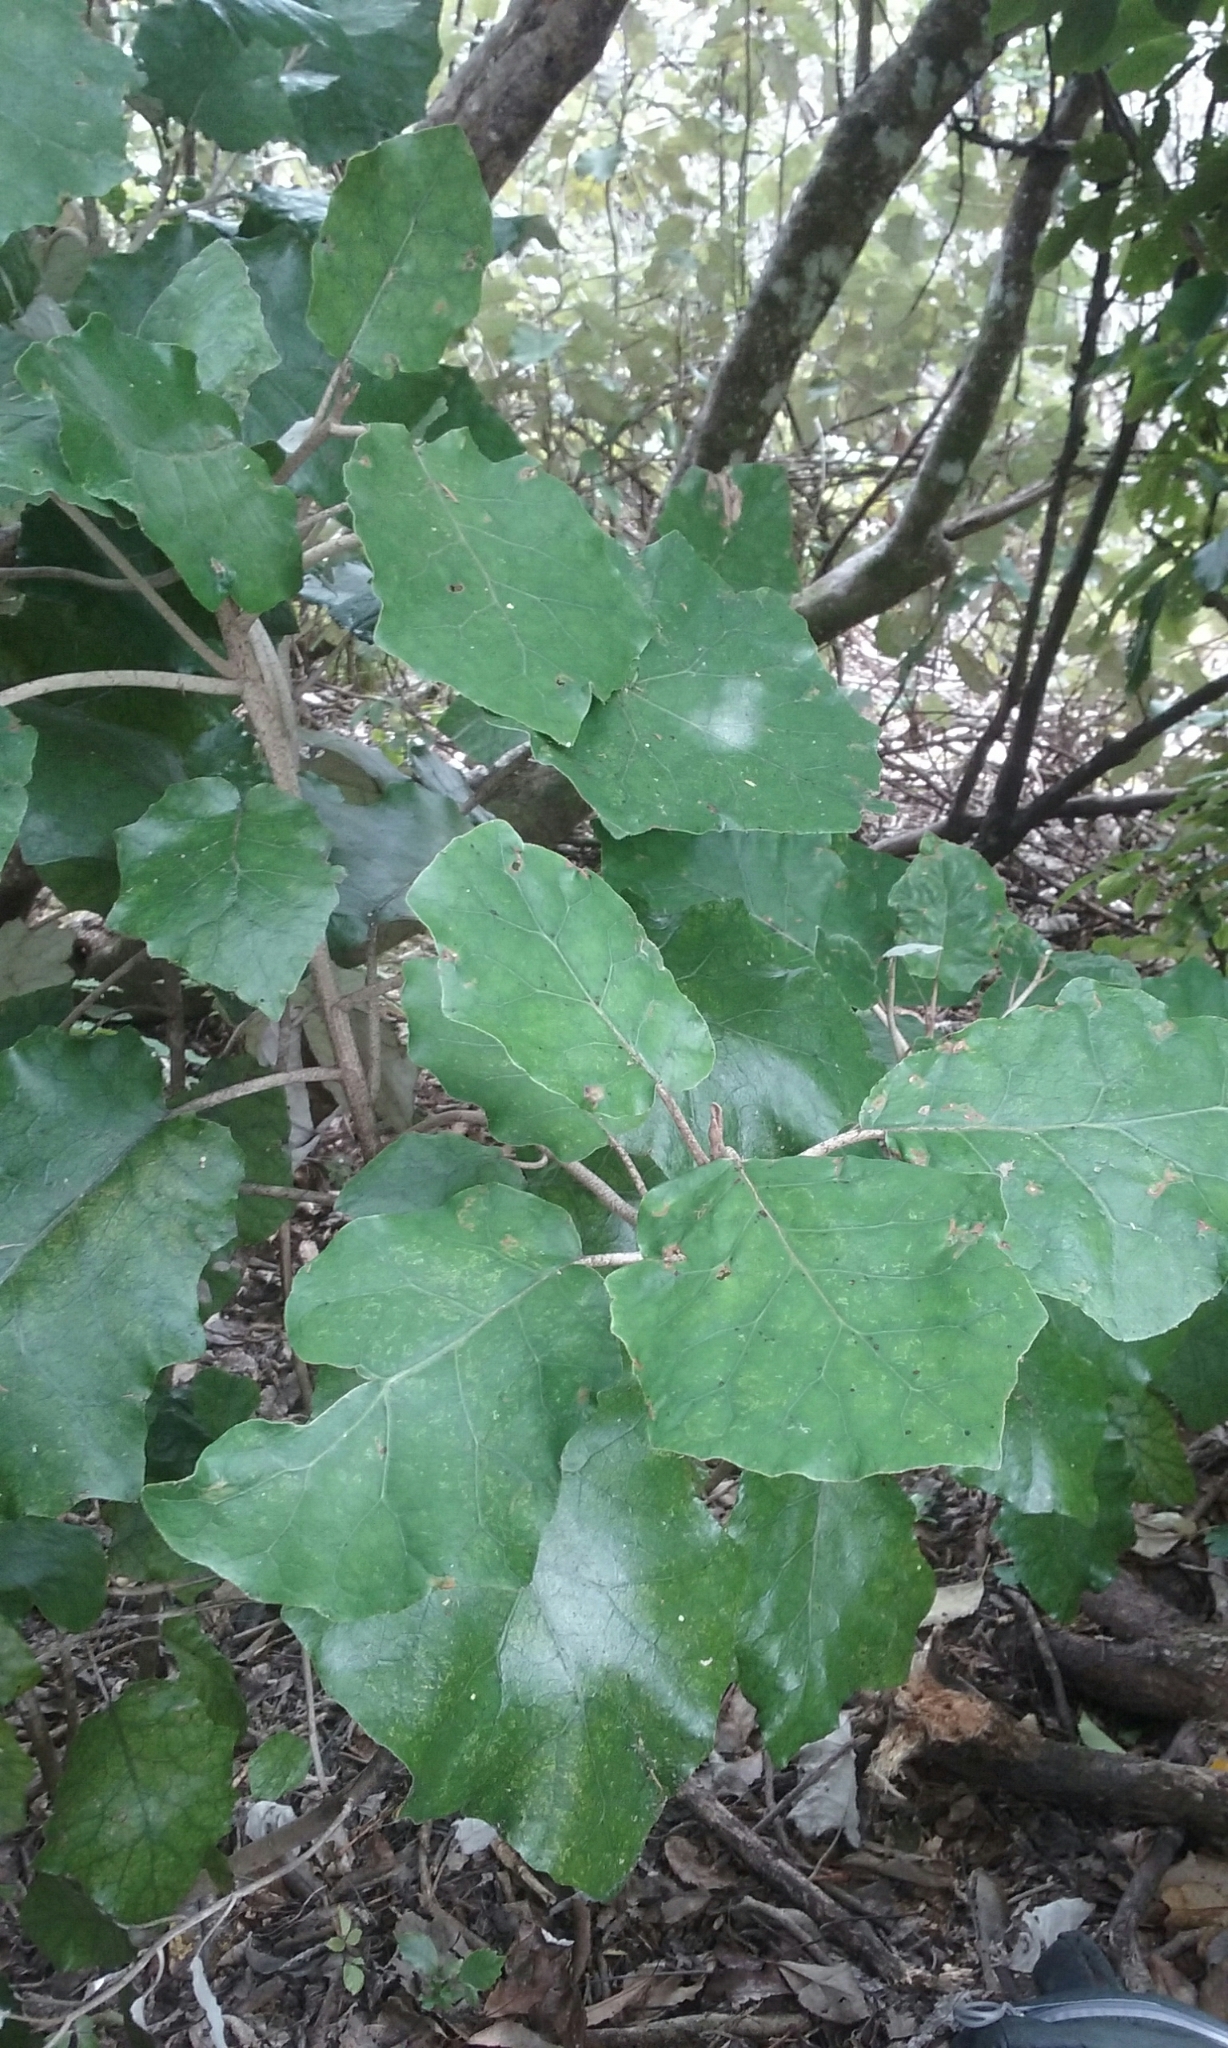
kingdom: Plantae
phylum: Tracheophyta
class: Magnoliopsida
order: Asterales
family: Asteraceae
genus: Brachyglottis
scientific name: Brachyglottis repanda
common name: Hedge ragwort
